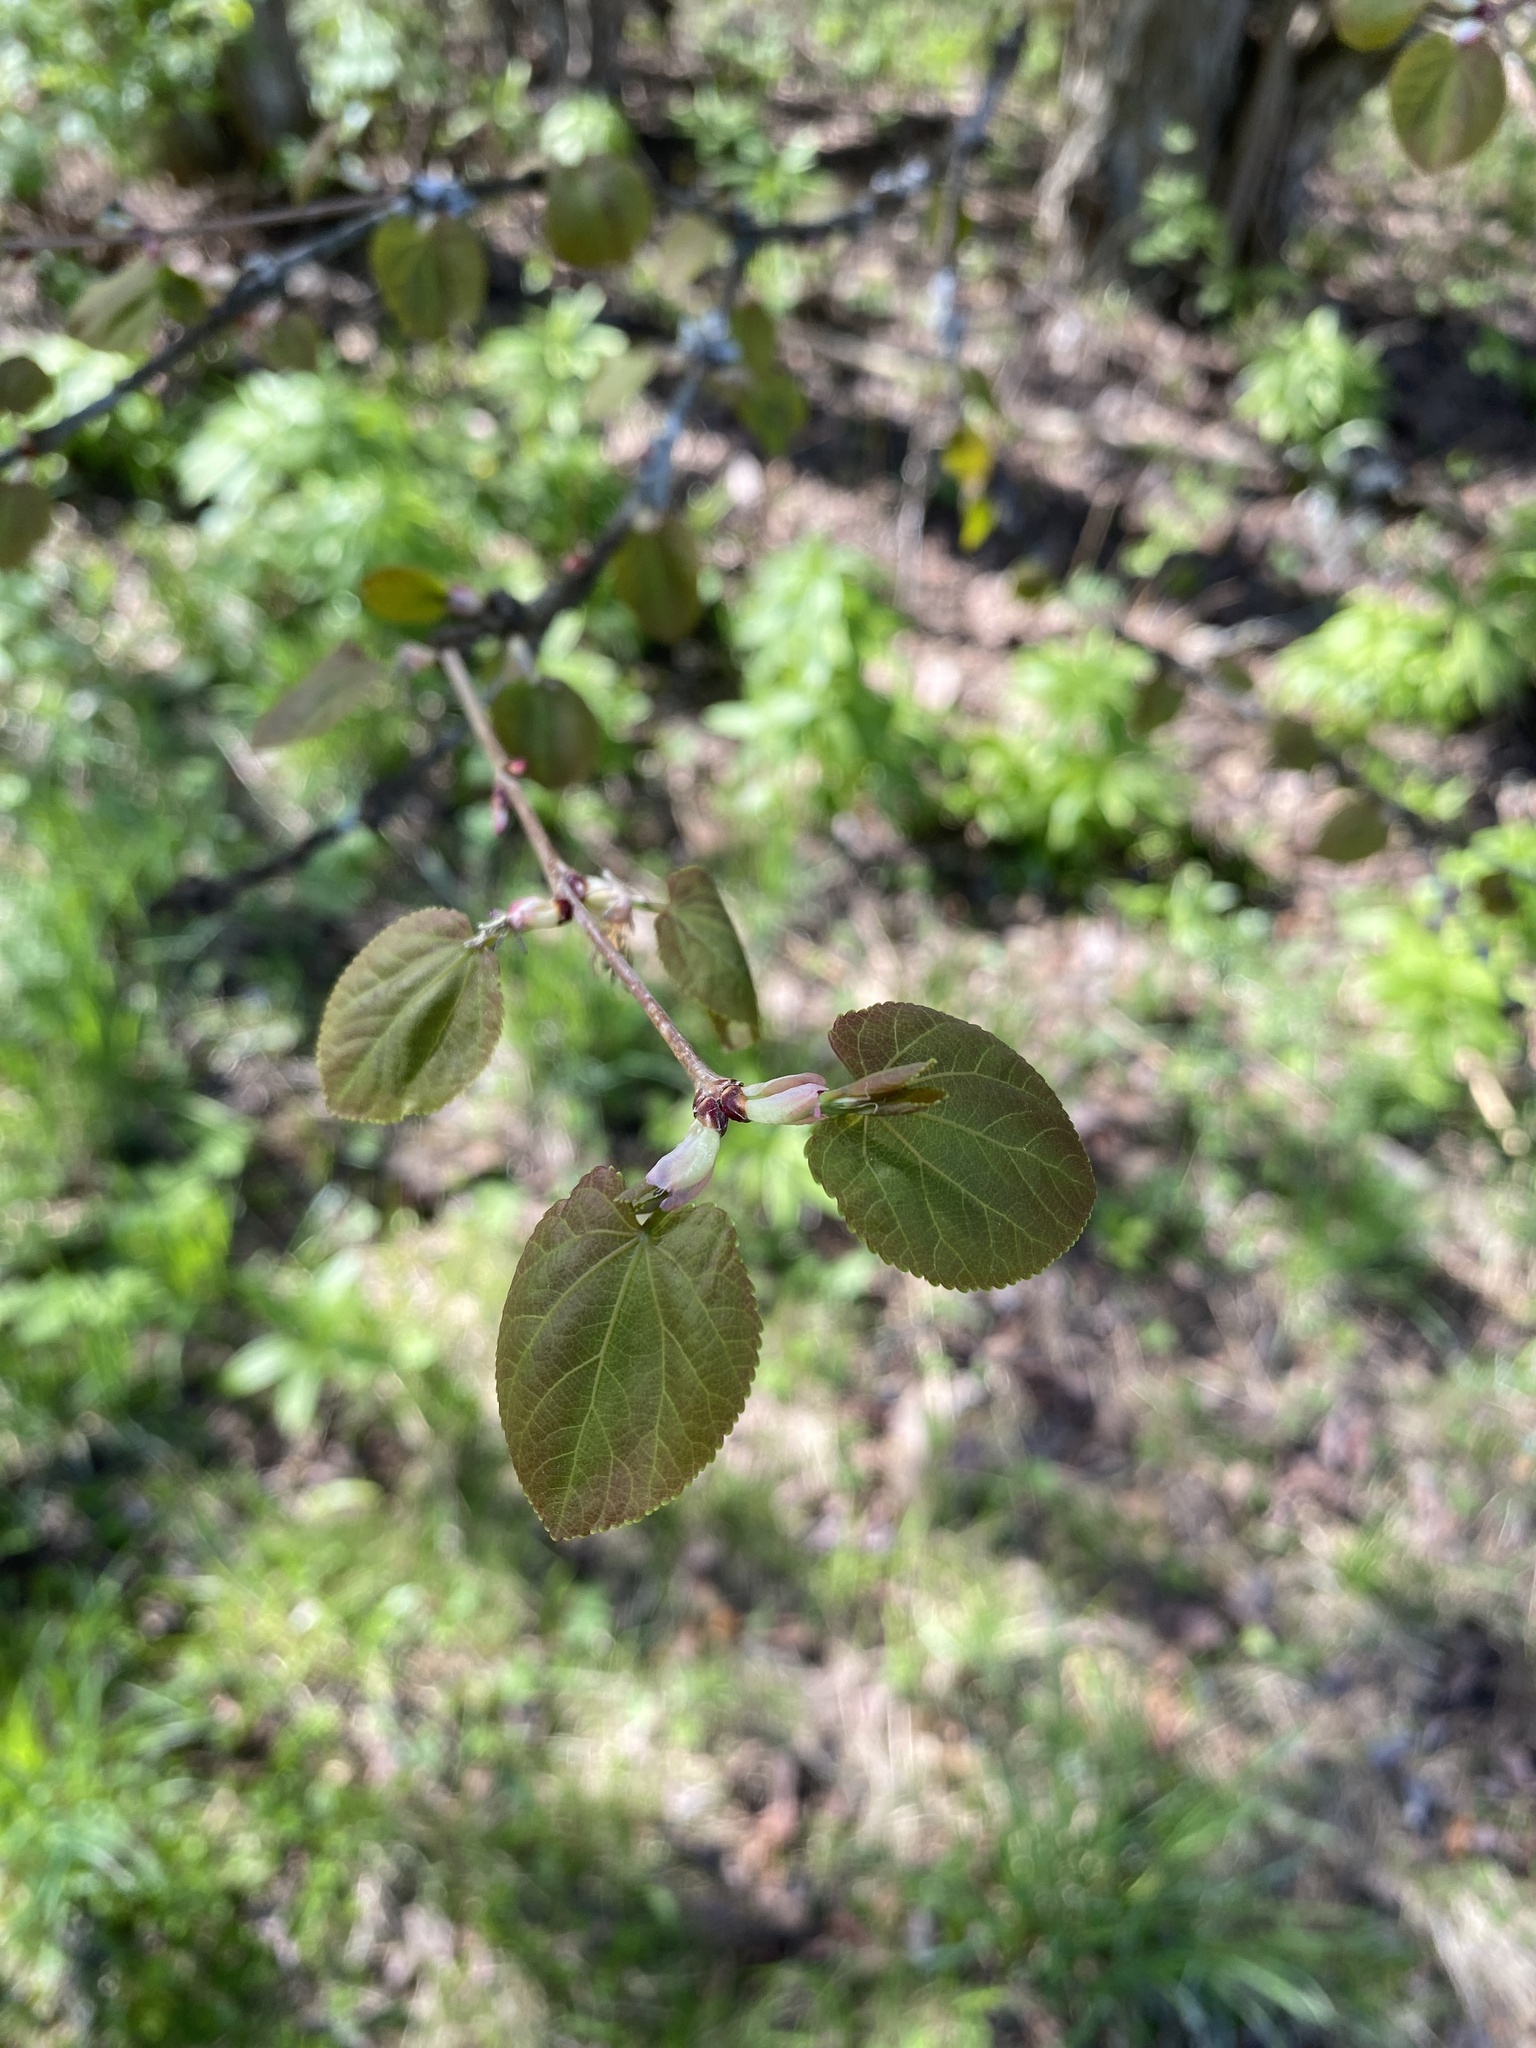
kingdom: Plantae
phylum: Tracheophyta
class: Magnoliopsida
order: Saxifragales
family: Cercidiphyllaceae
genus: Cercidiphyllum
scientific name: Cercidiphyllum japonicum
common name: Katsura tree
